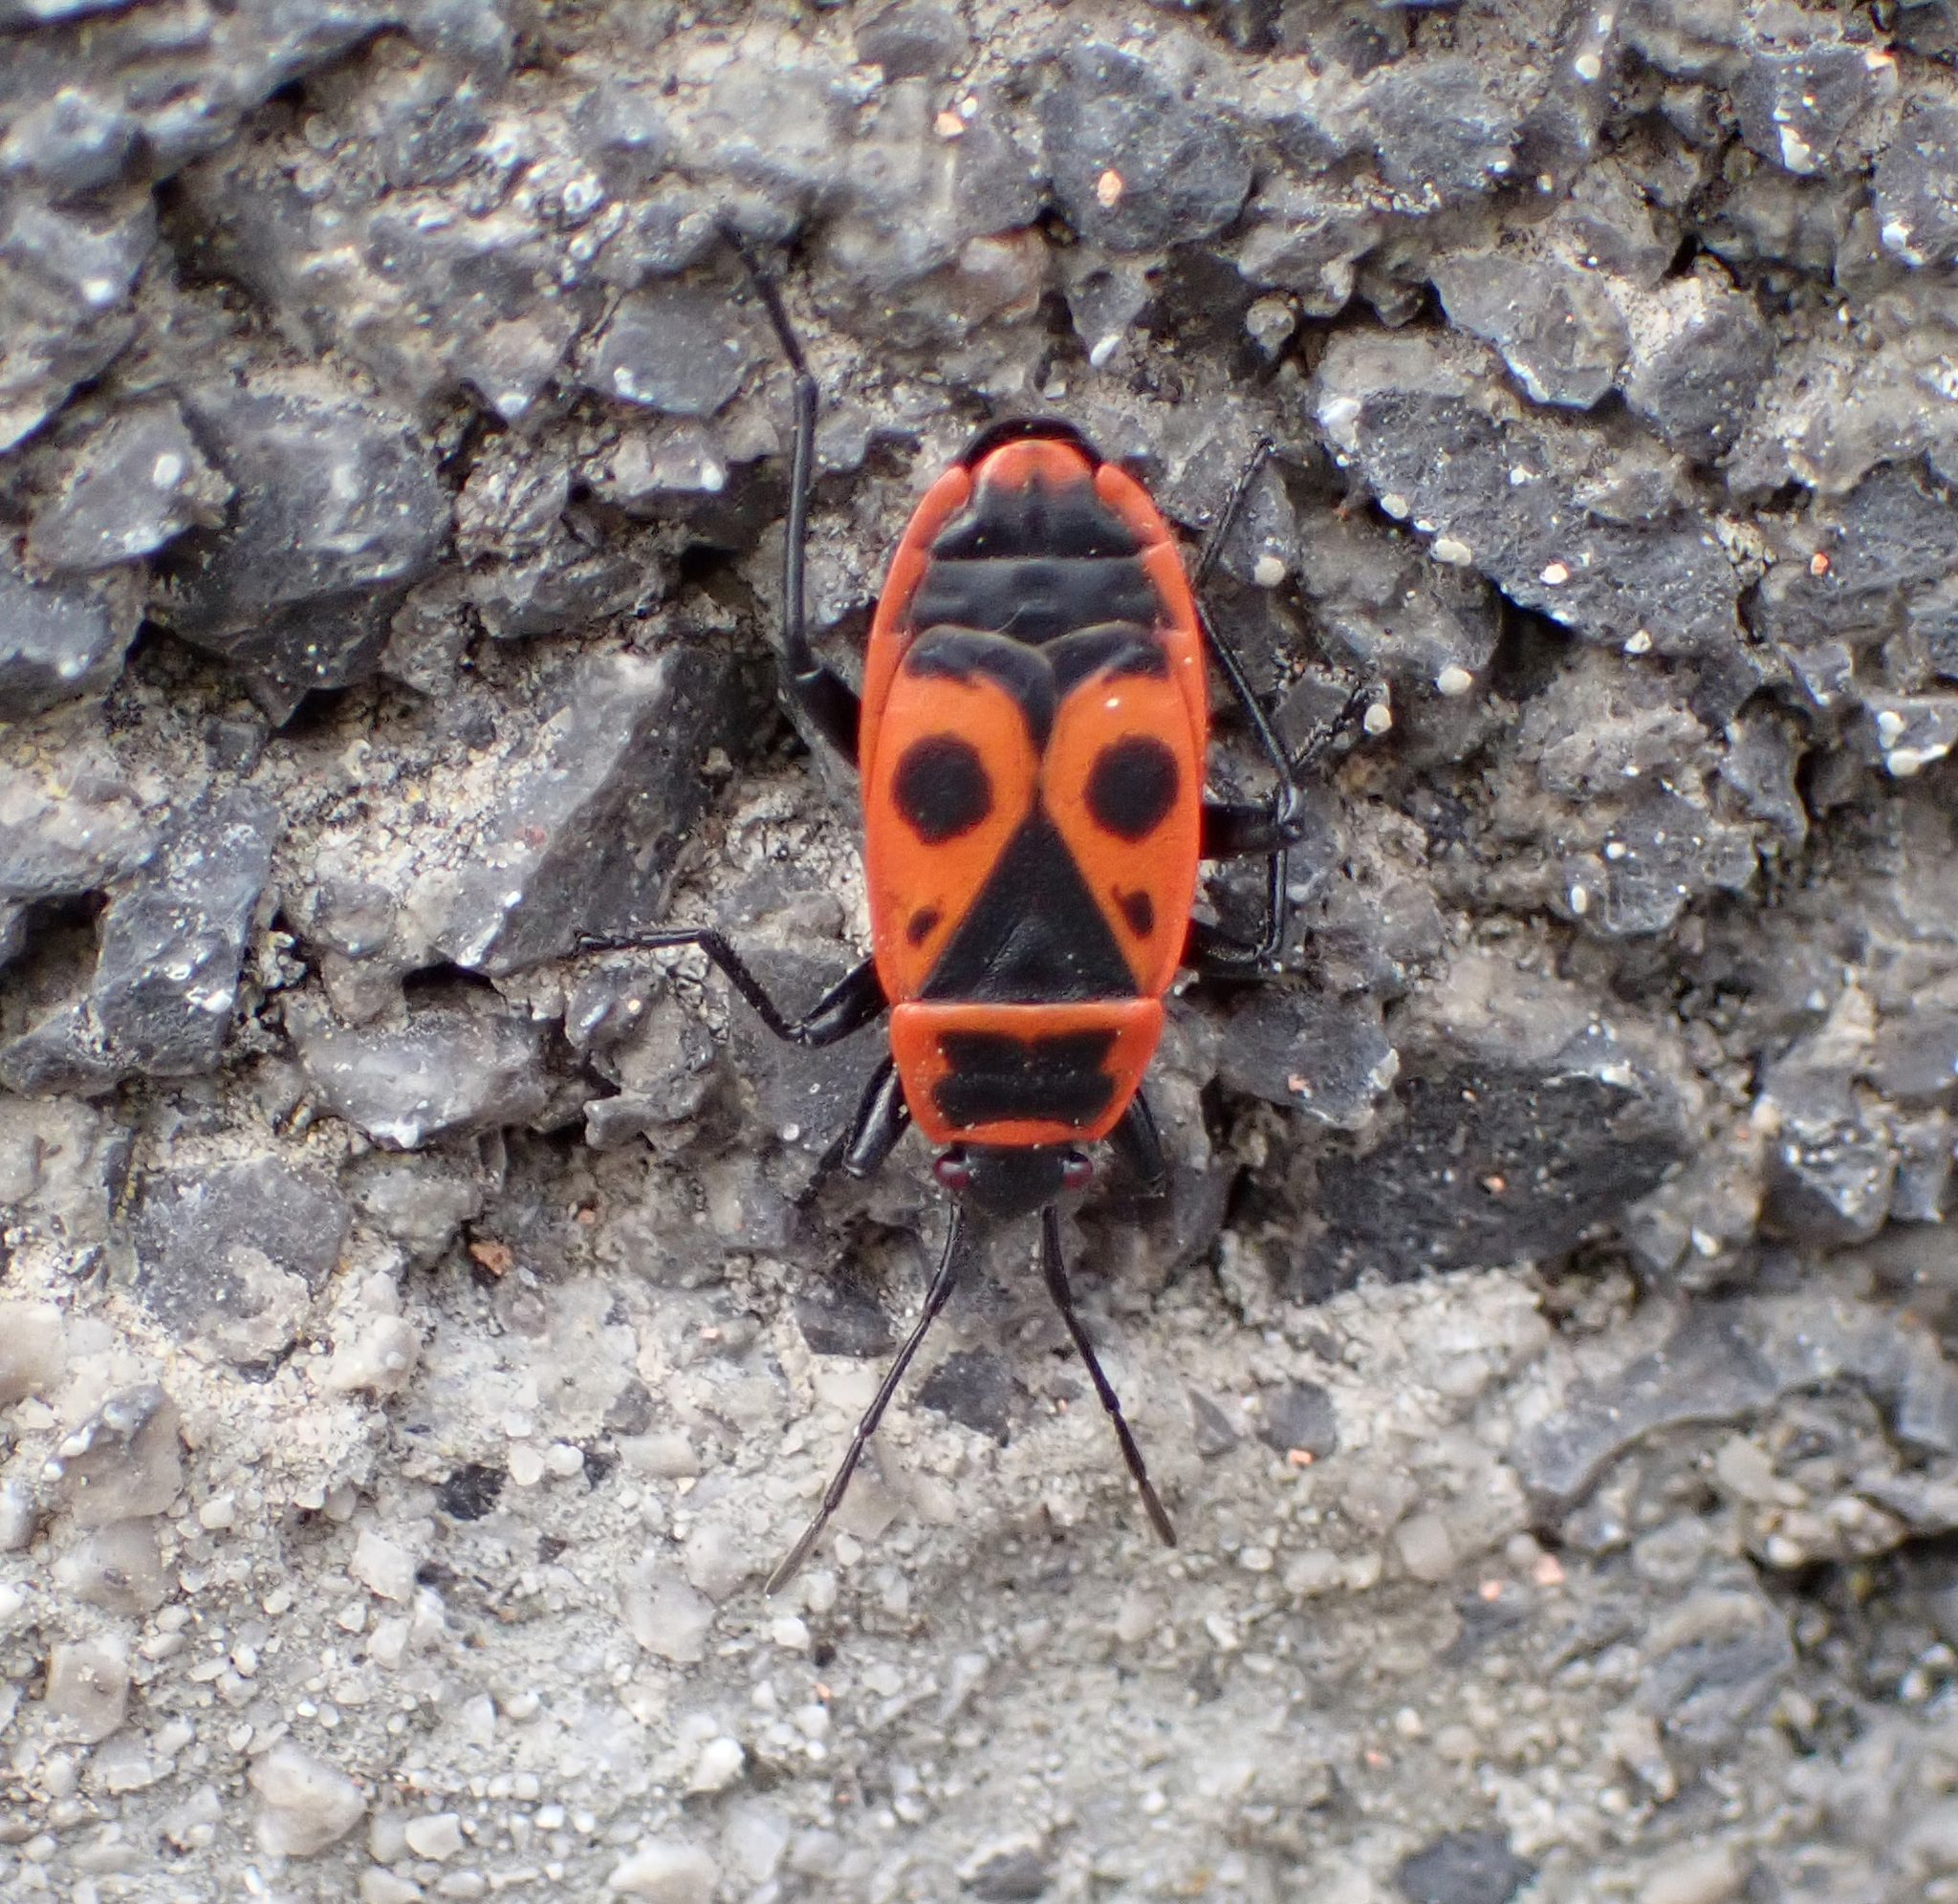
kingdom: Animalia
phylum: Arthropoda
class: Insecta
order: Hemiptera
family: Pyrrhocoridae
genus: Pyrrhocoris
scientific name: Pyrrhocoris apterus
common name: Firebug
